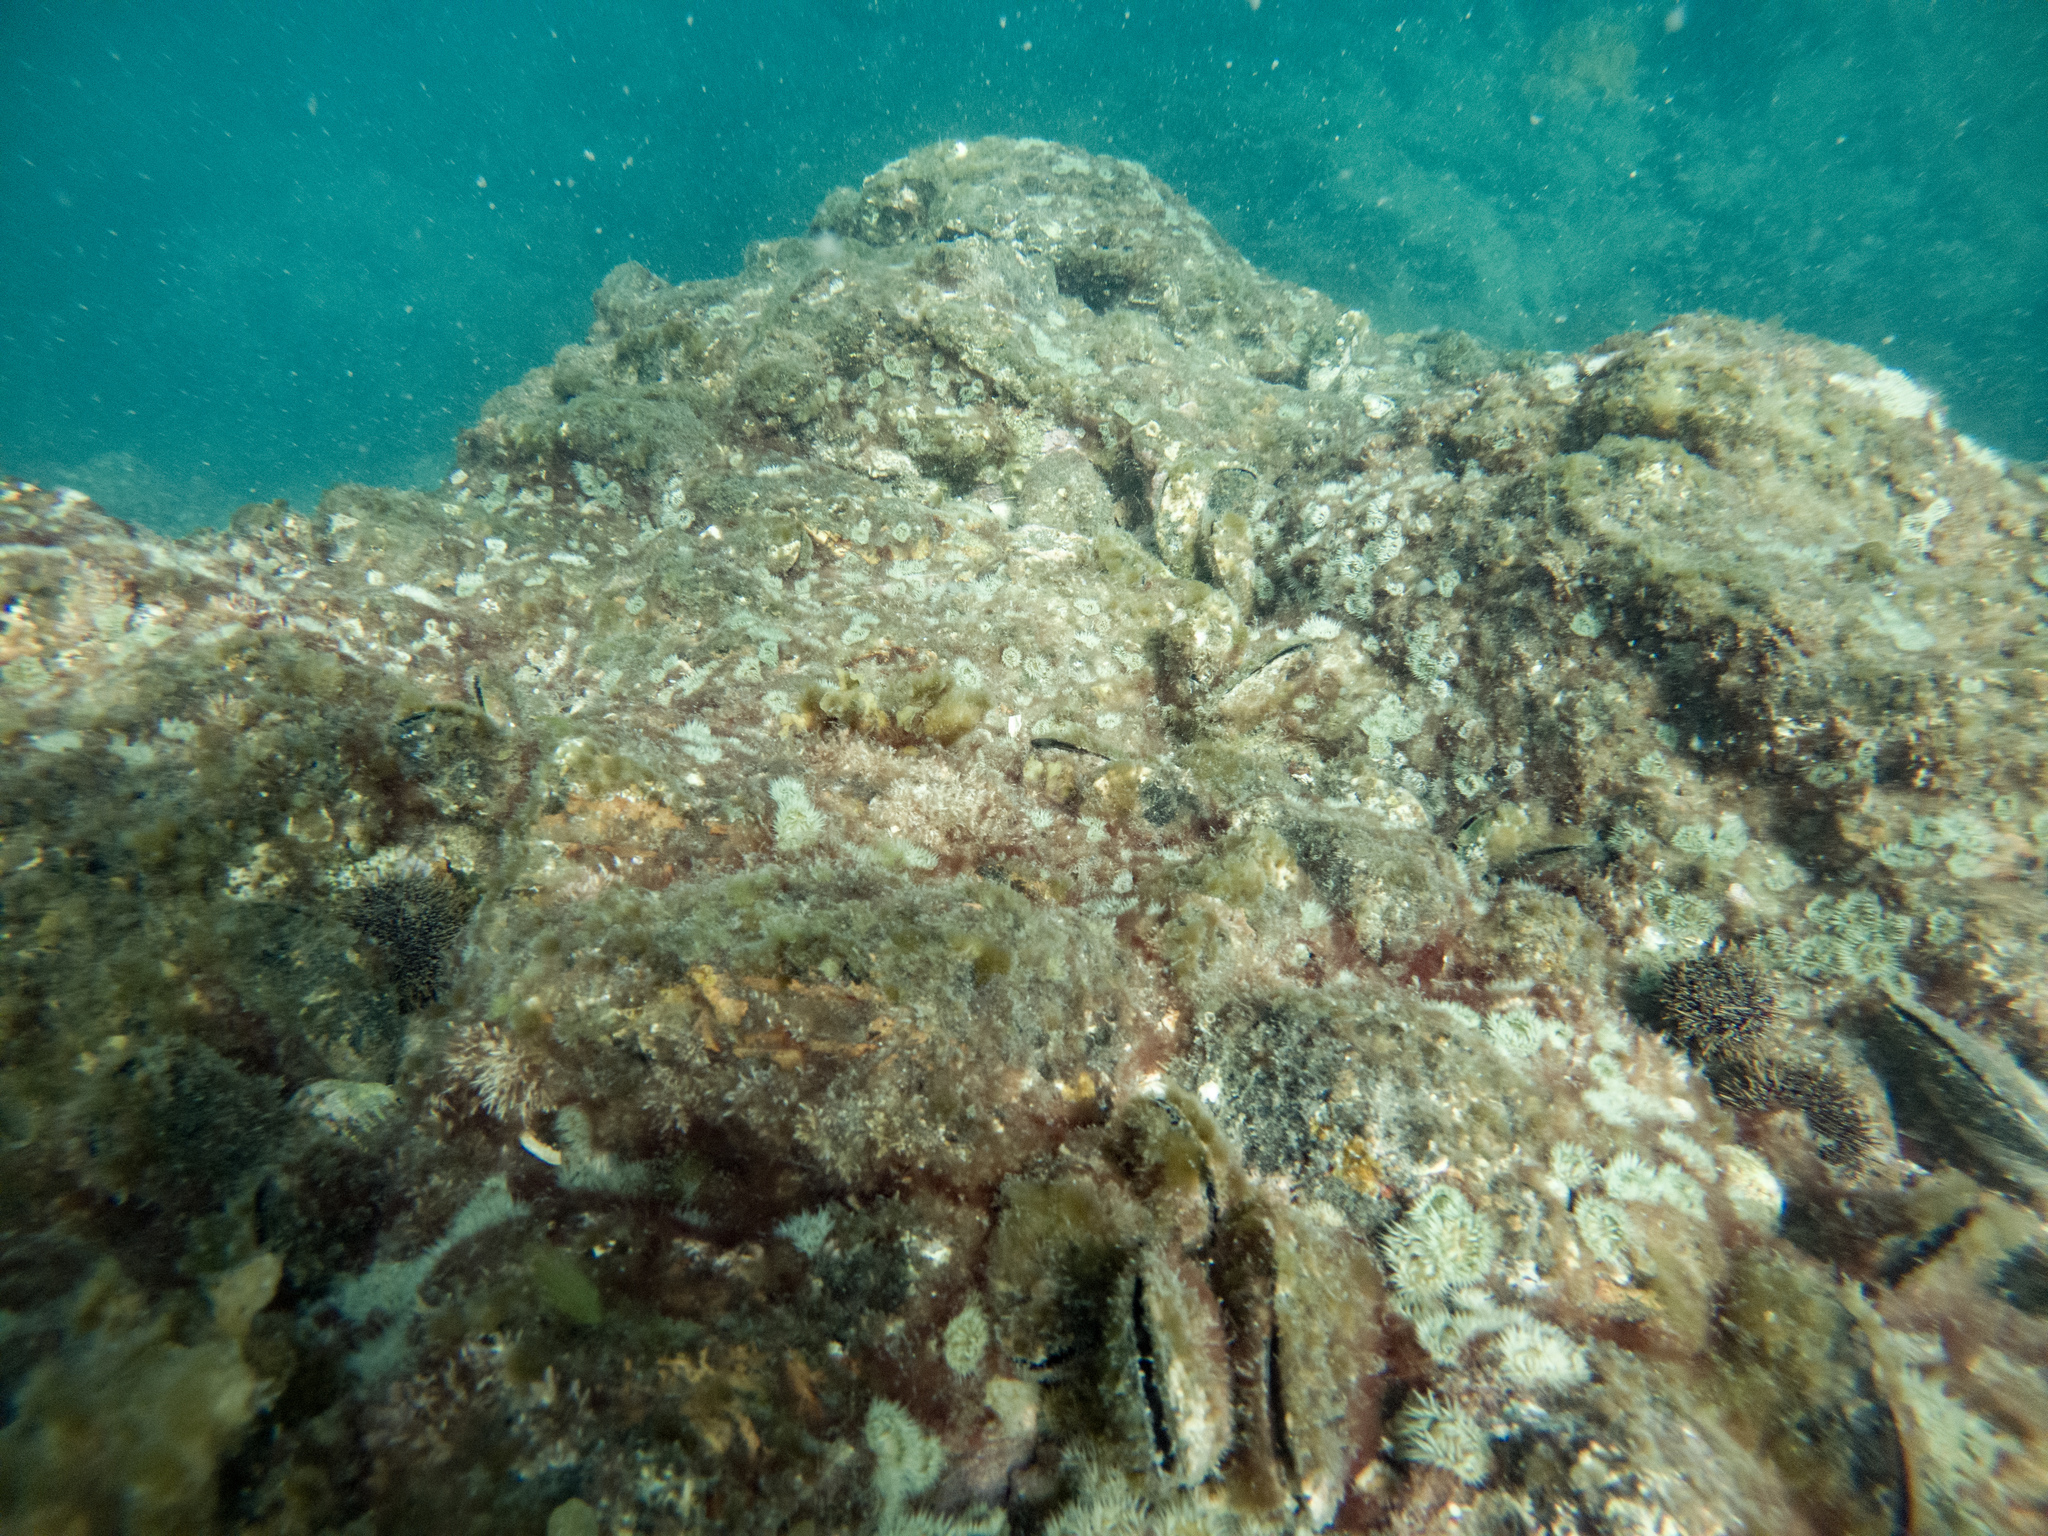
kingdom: Animalia
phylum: Cnidaria
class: Anthozoa
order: Actiniaria
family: Sagartiidae
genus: Anthothoe
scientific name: Anthothoe albocincta
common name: Orange striped anemone
